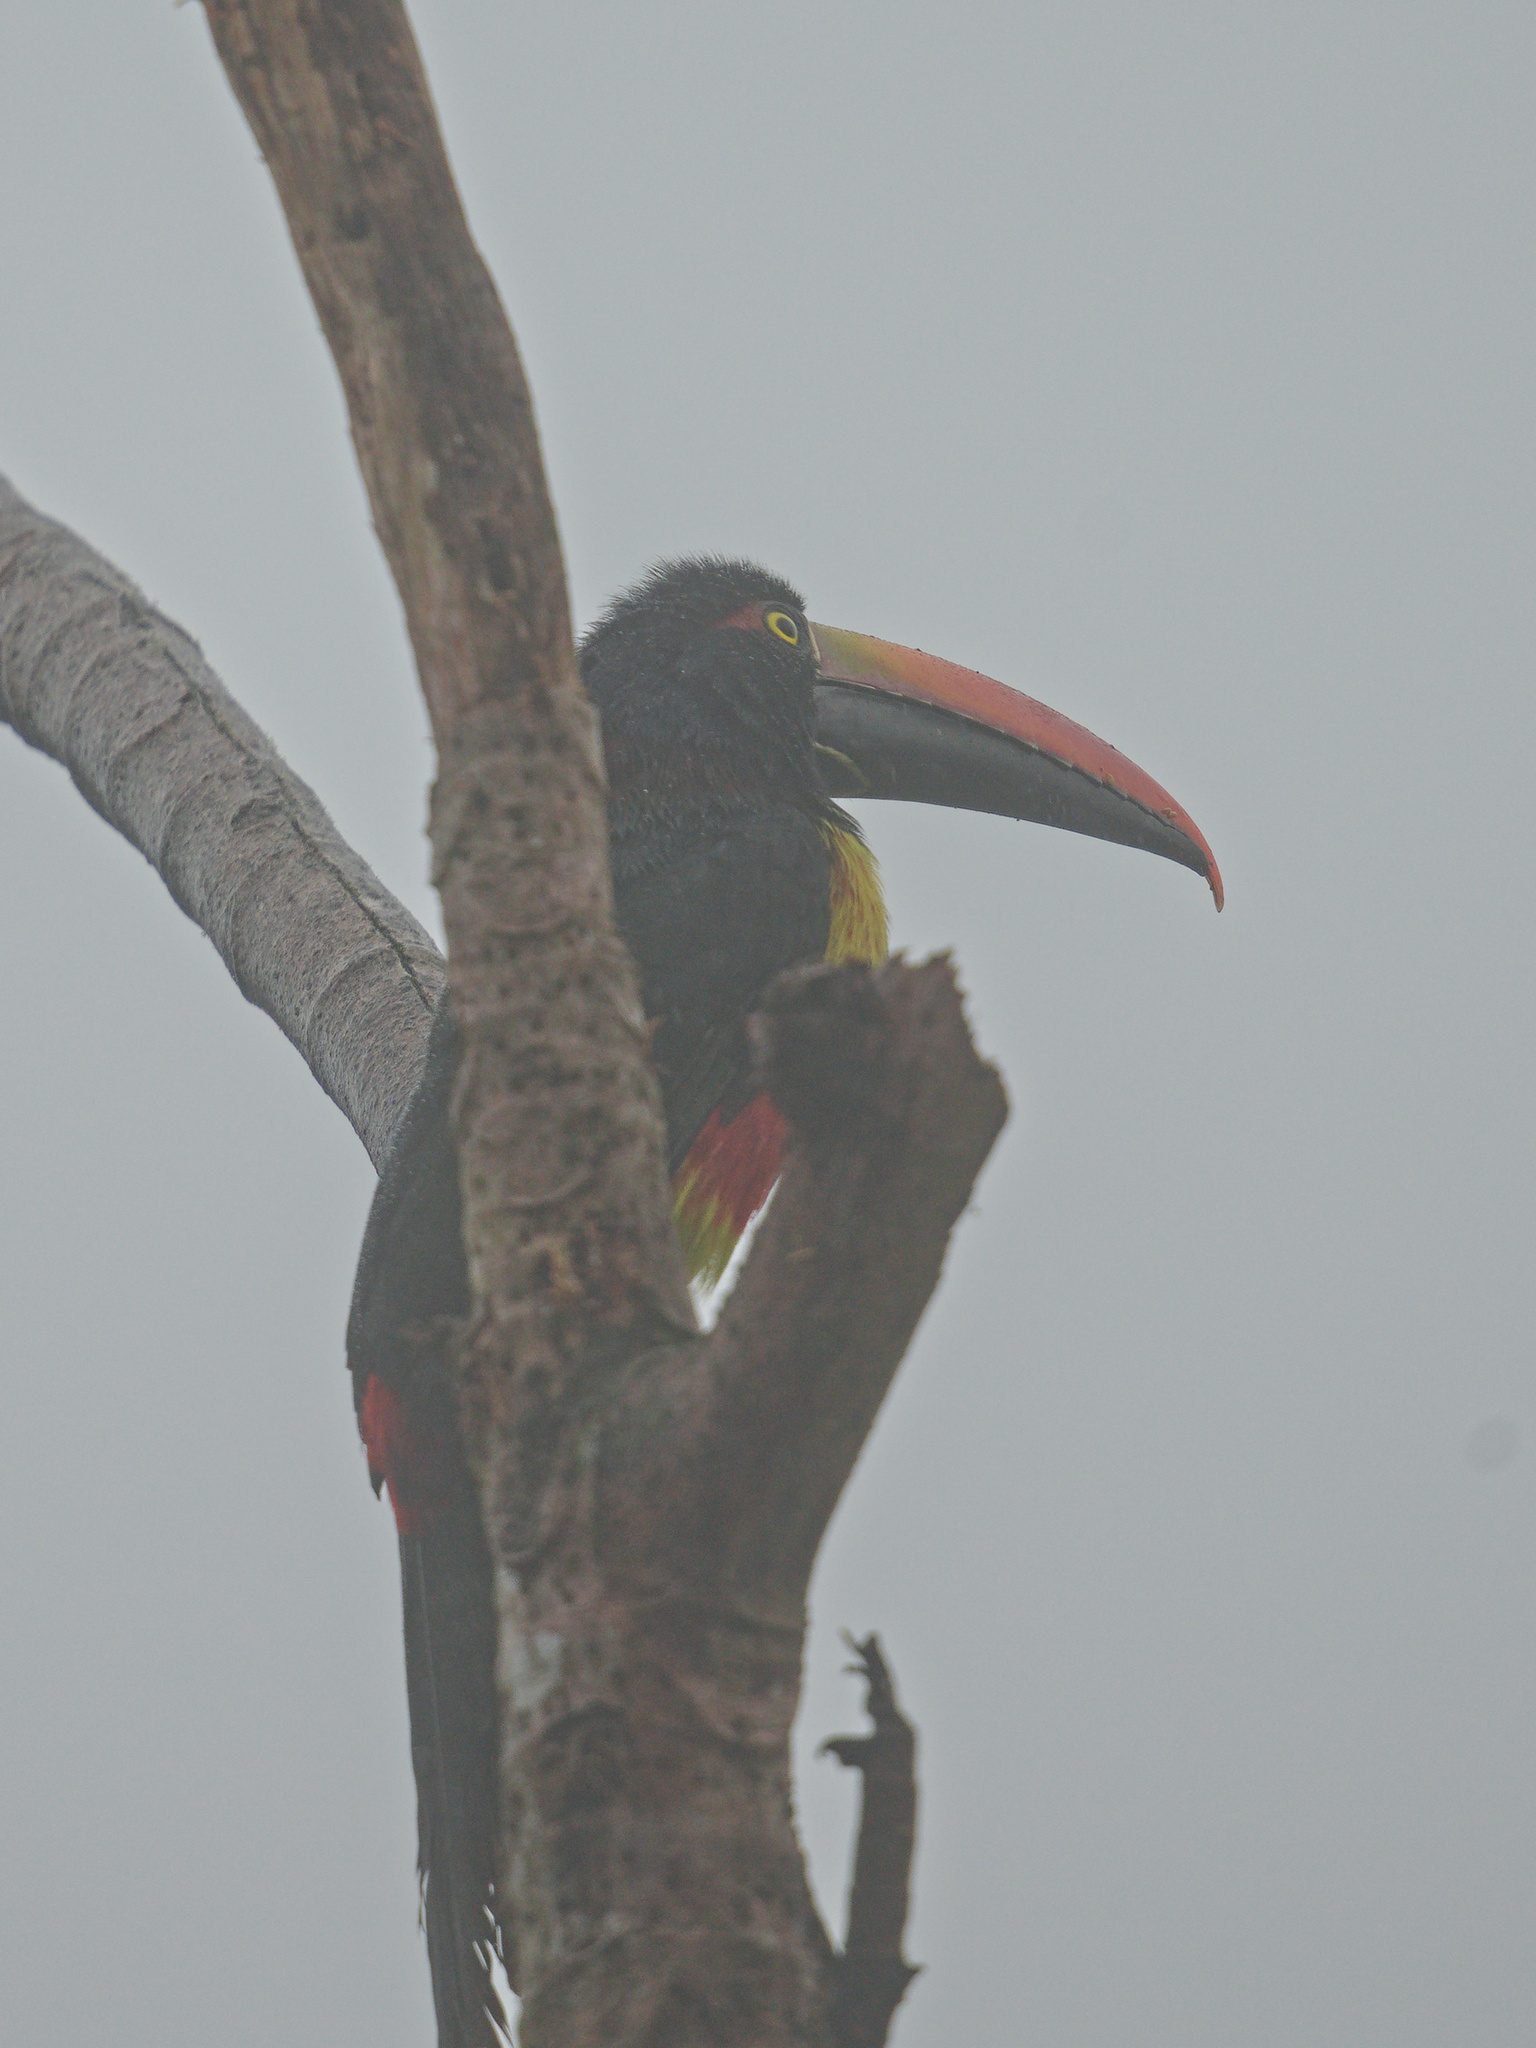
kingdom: Animalia
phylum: Chordata
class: Aves
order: Piciformes
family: Ramphastidae
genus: Pteroglossus
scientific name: Pteroglossus frantzii
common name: Fiery-billed aracari
